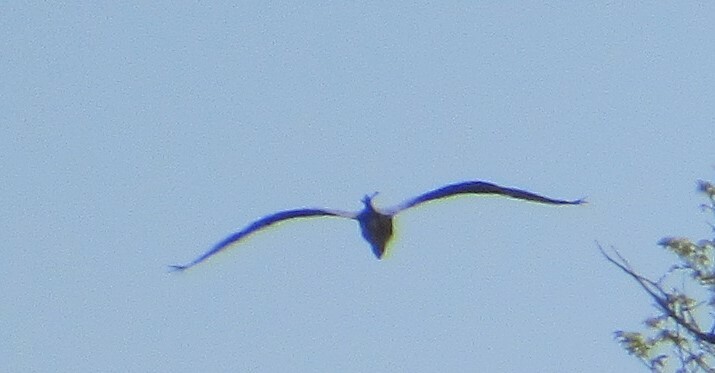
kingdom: Animalia
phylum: Chordata
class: Aves
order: Pelecaniformes
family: Ardeidae
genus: Ardea
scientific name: Ardea herodias
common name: Great blue heron
